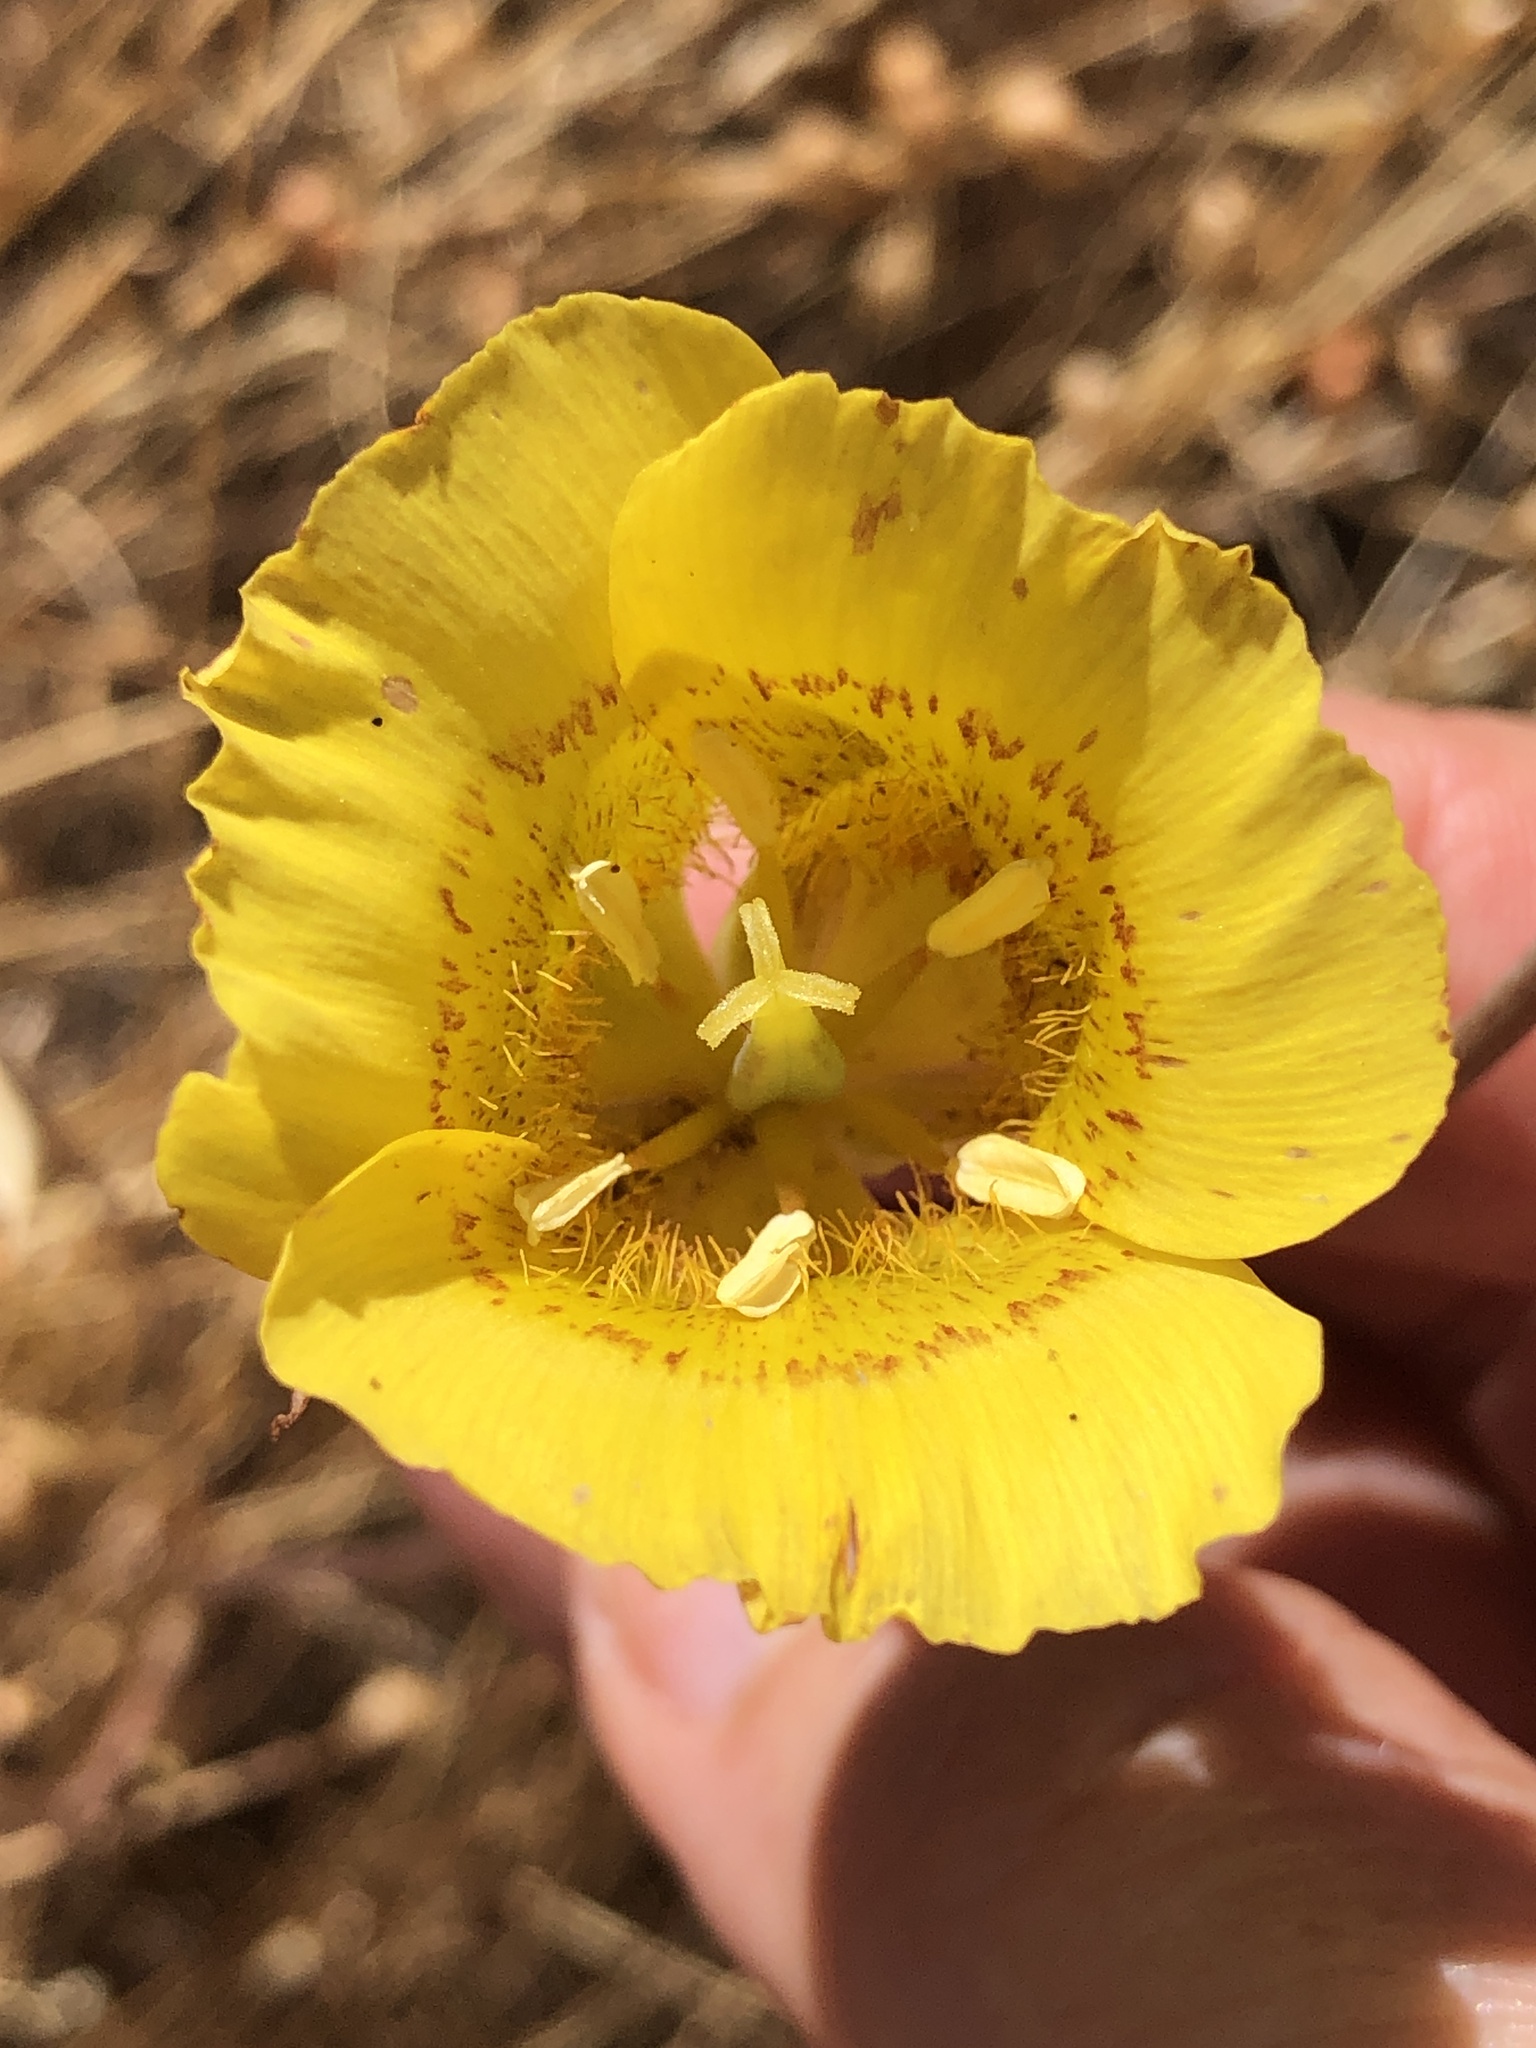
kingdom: Plantae
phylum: Tracheophyta
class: Liliopsida
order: Liliales
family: Liliaceae
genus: Calochortus
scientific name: Calochortus luteus
